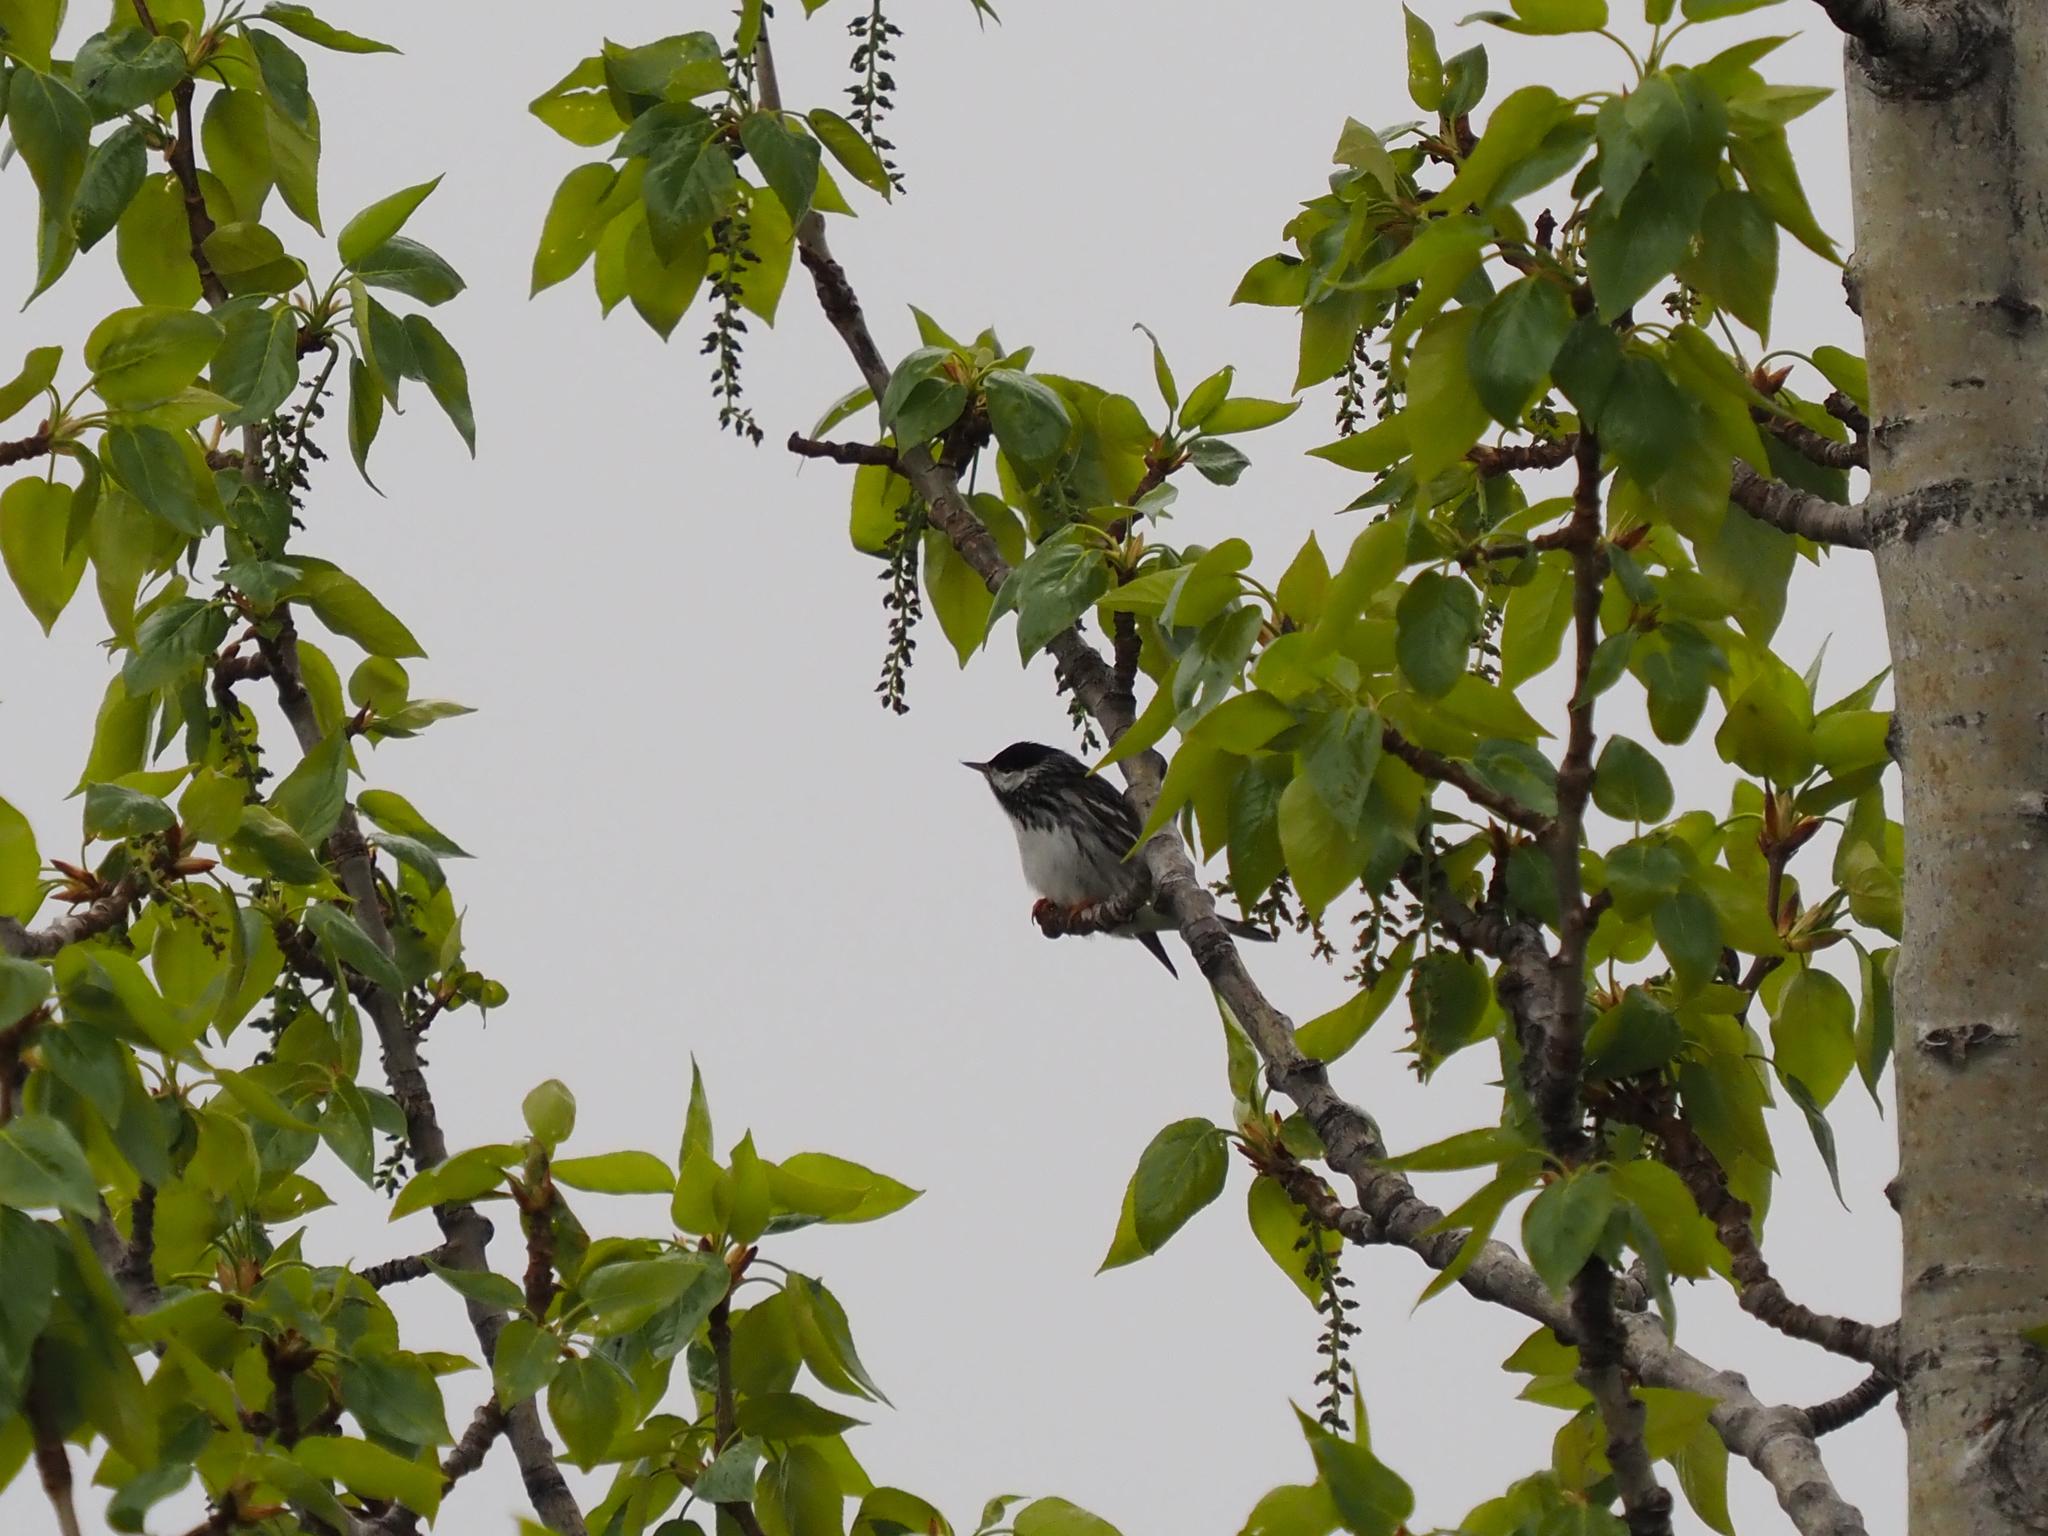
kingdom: Animalia
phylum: Chordata
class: Aves
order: Passeriformes
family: Parulidae
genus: Setophaga
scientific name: Setophaga striata
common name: Blackpoll warbler
